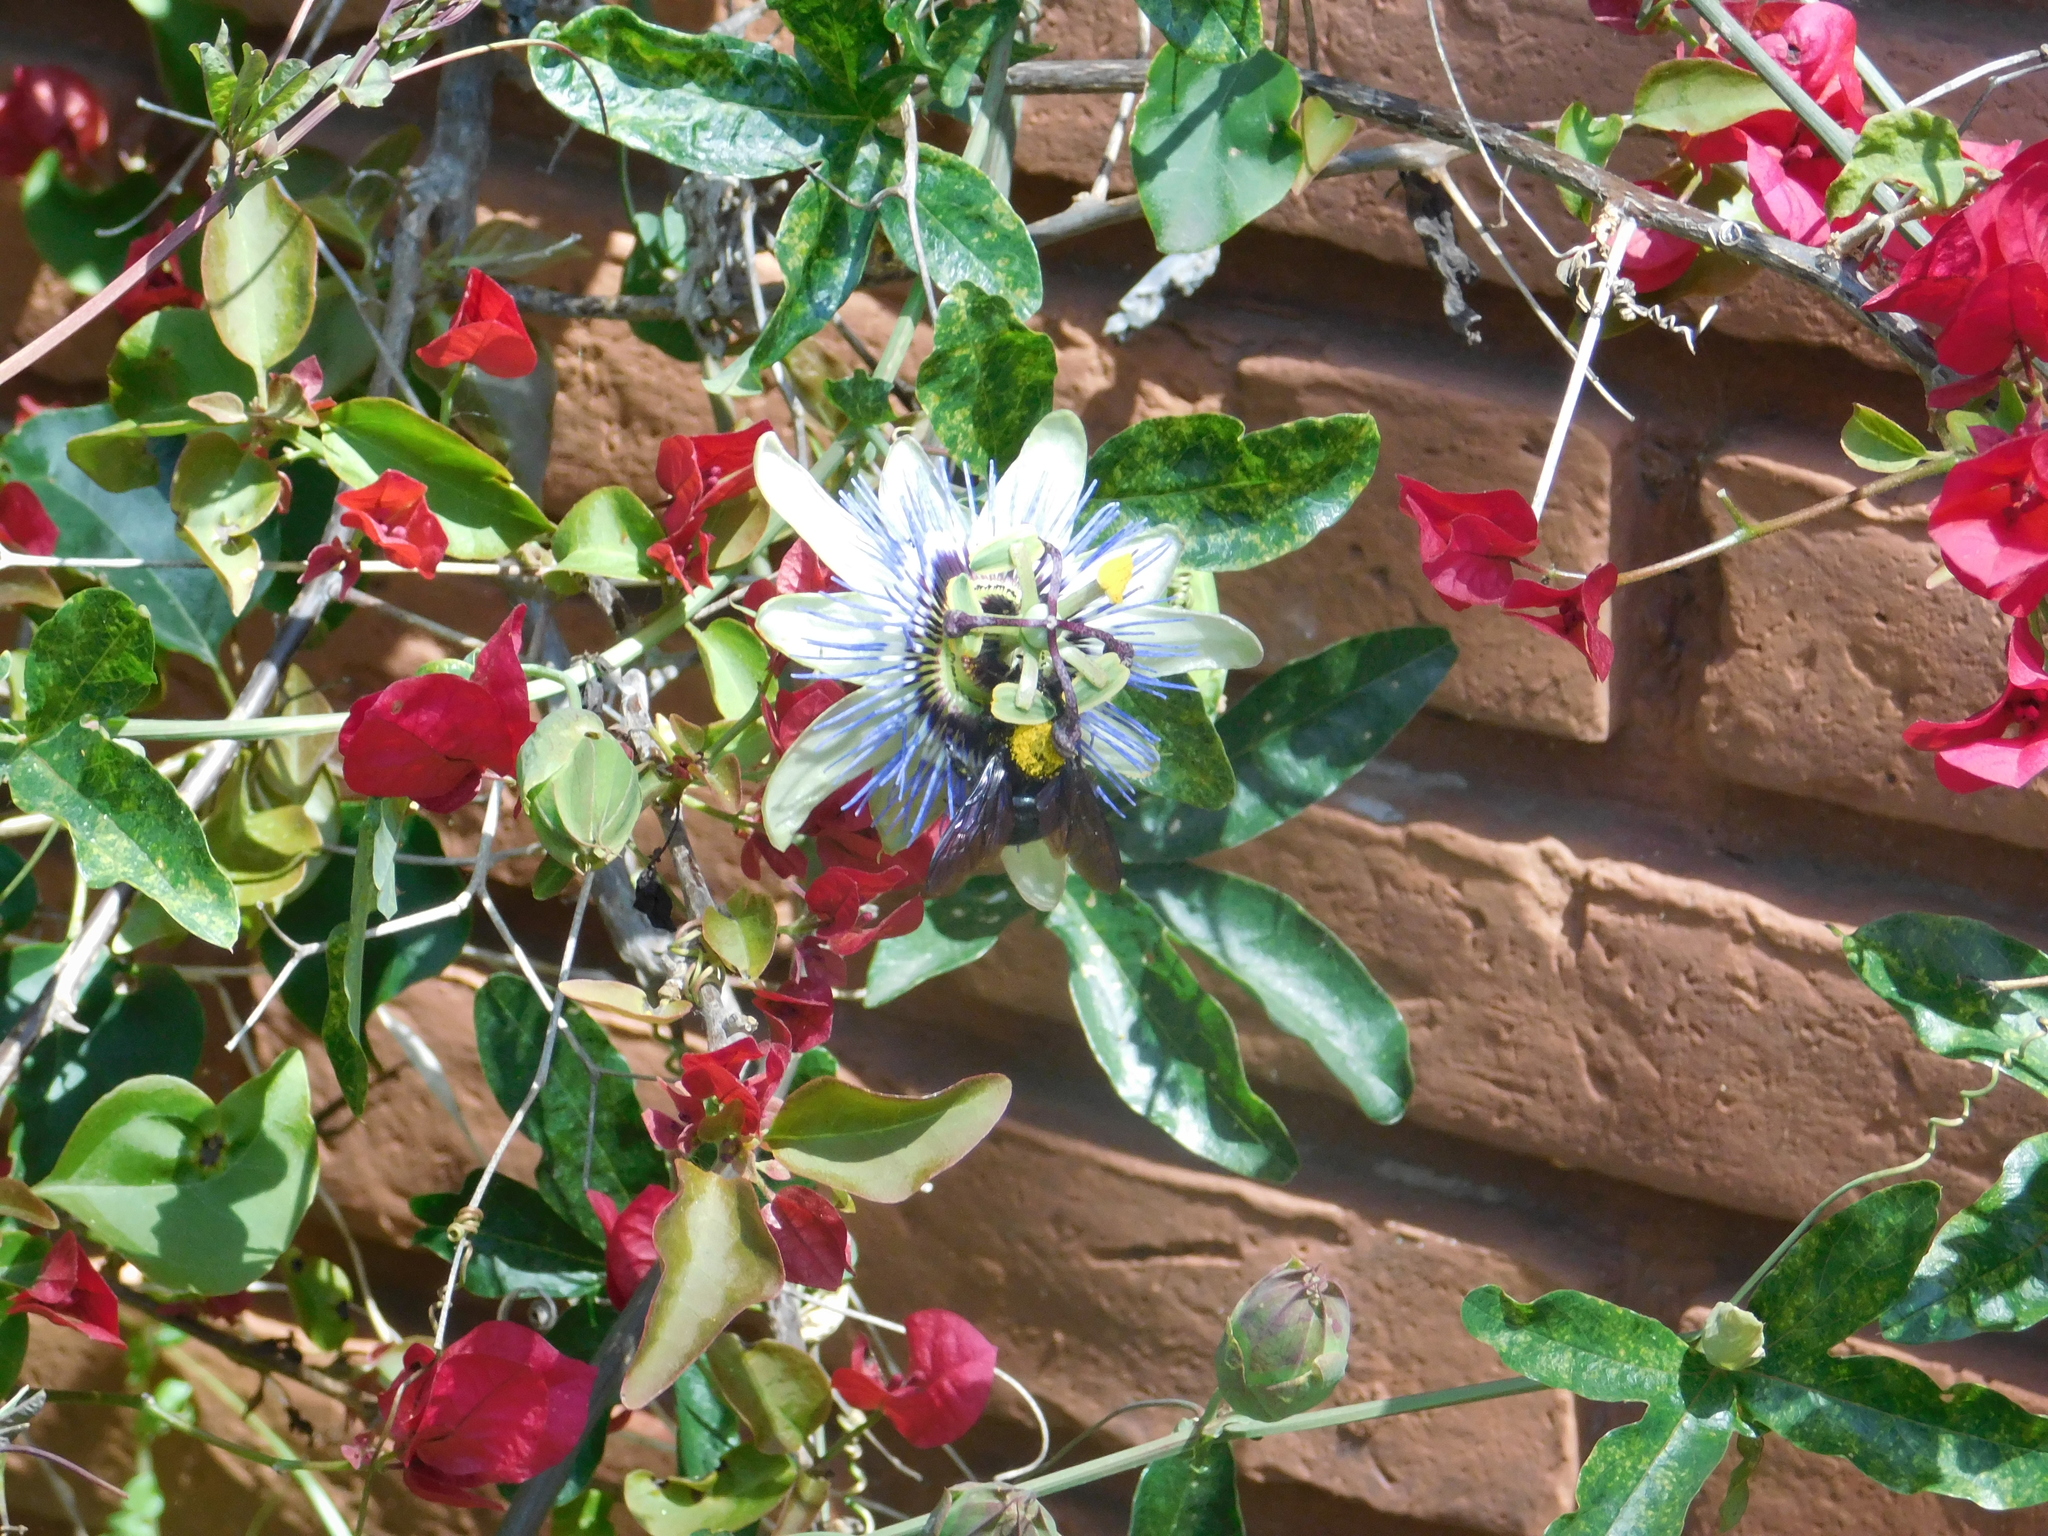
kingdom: Animalia
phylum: Arthropoda
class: Insecta
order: Hymenoptera
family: Apidae
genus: Xylocopa
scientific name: Xylocopa augusti
